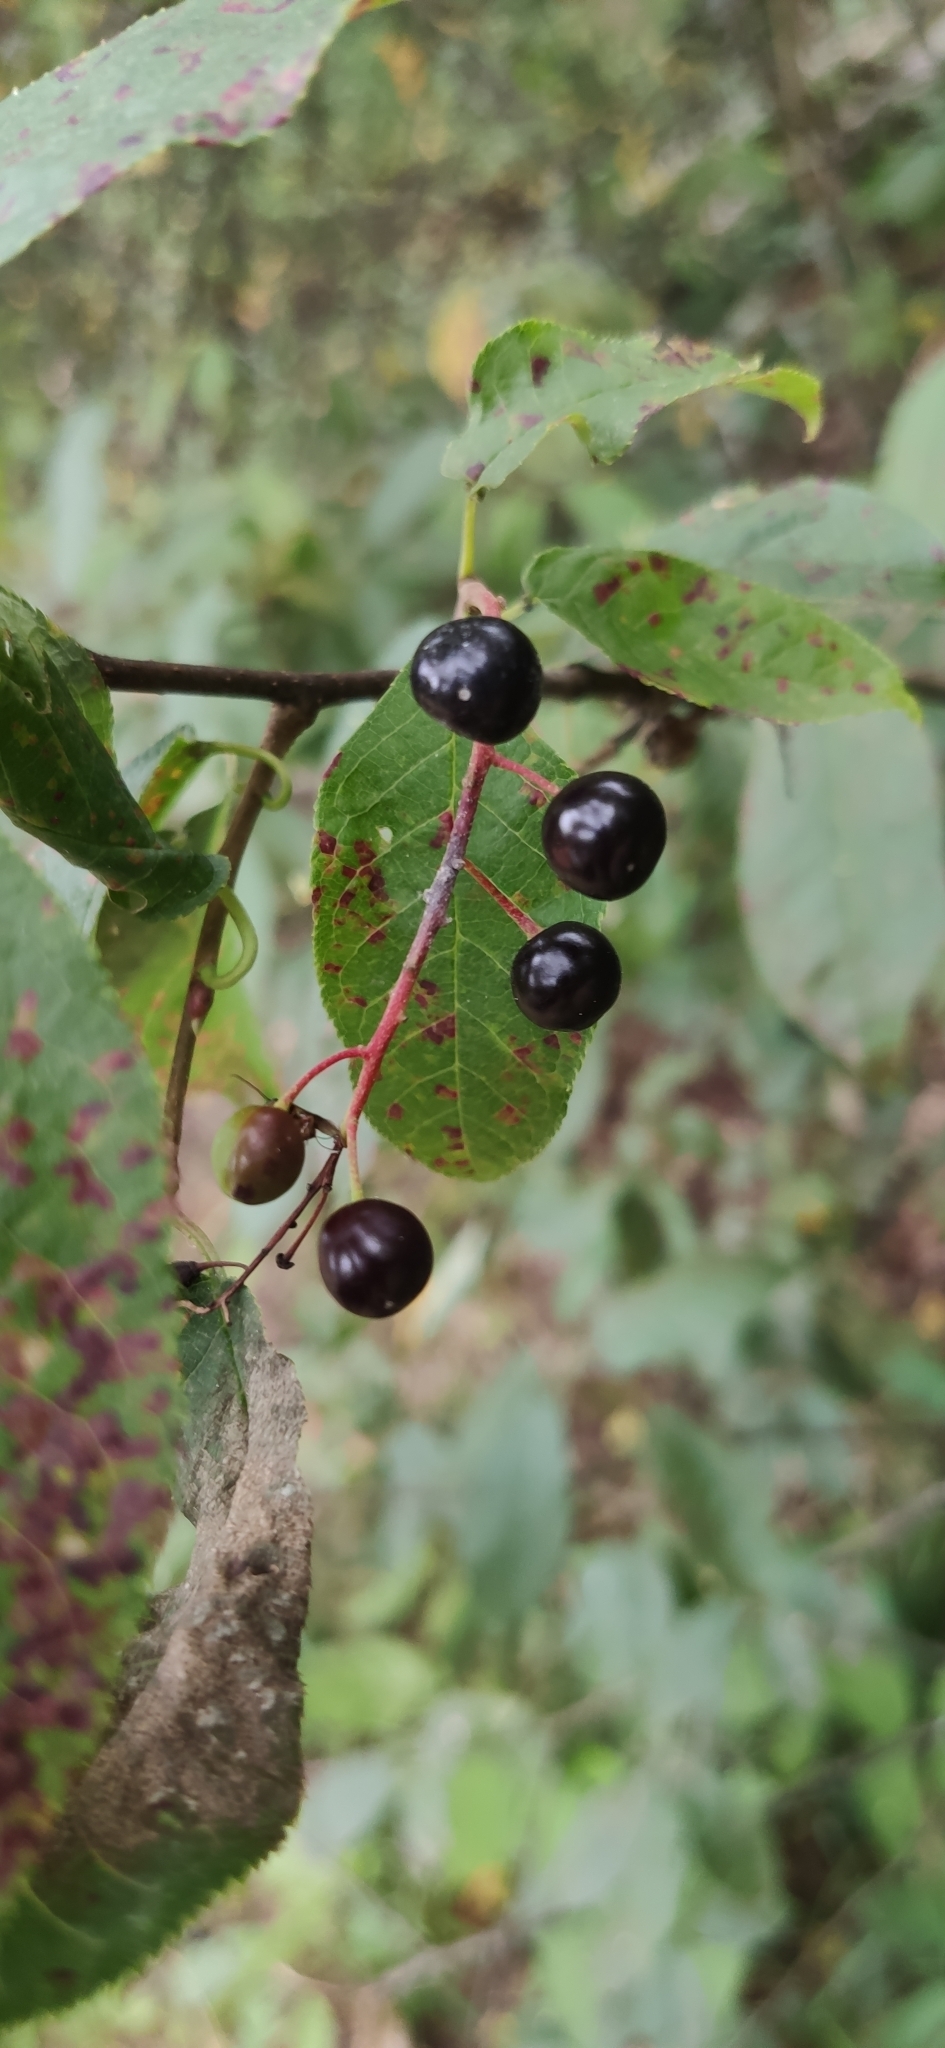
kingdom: Plantae
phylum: Tracheophyta
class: Magnoliopsida
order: Rosales
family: Rosaceae
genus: Prunus
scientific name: Prunus padus
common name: Bird cherry
